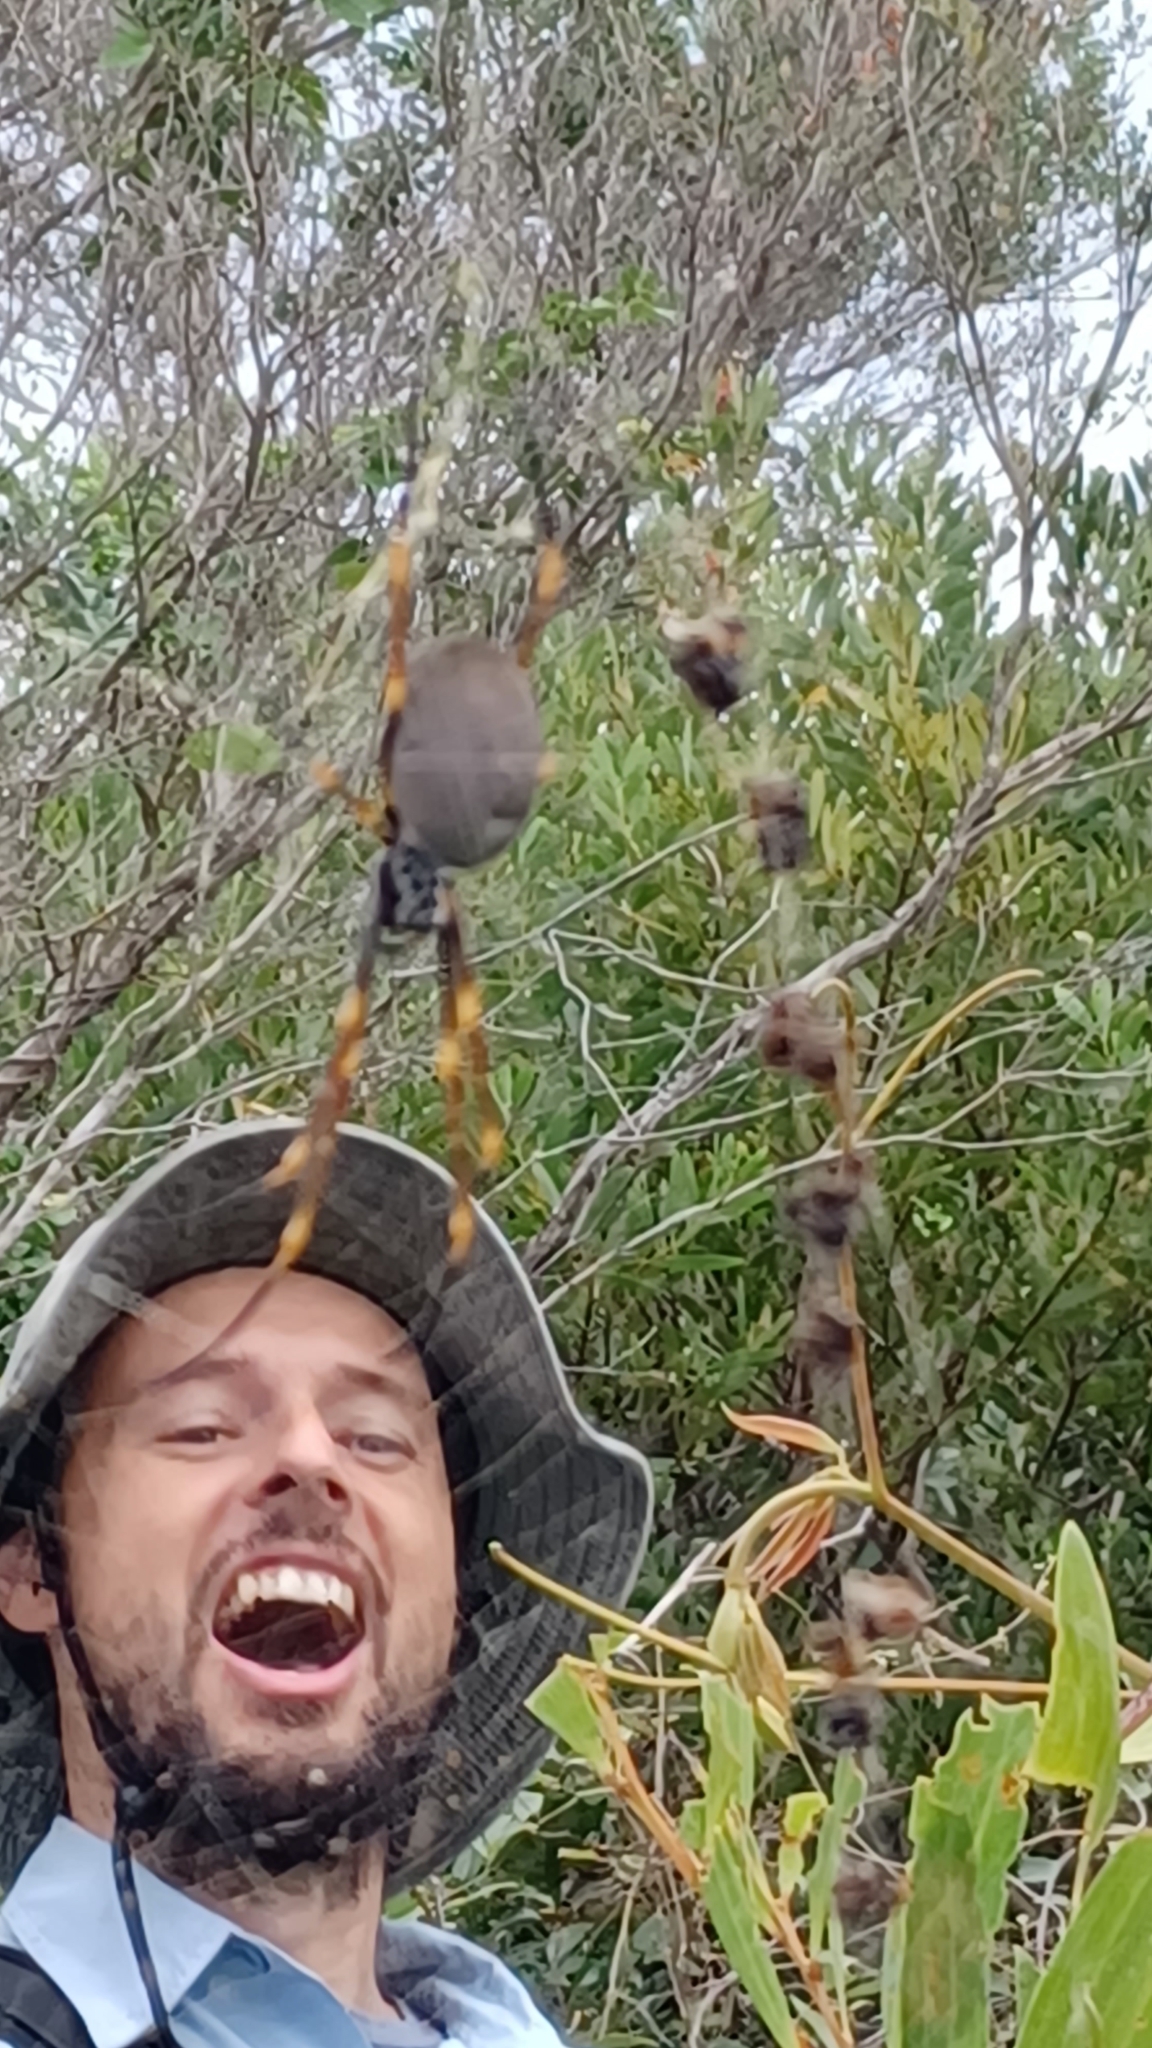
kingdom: Animalia
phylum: Arthropoda
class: Arachnida
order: Araneae
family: Araneidae
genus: Trichonephila
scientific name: Trichonephila plumipes
